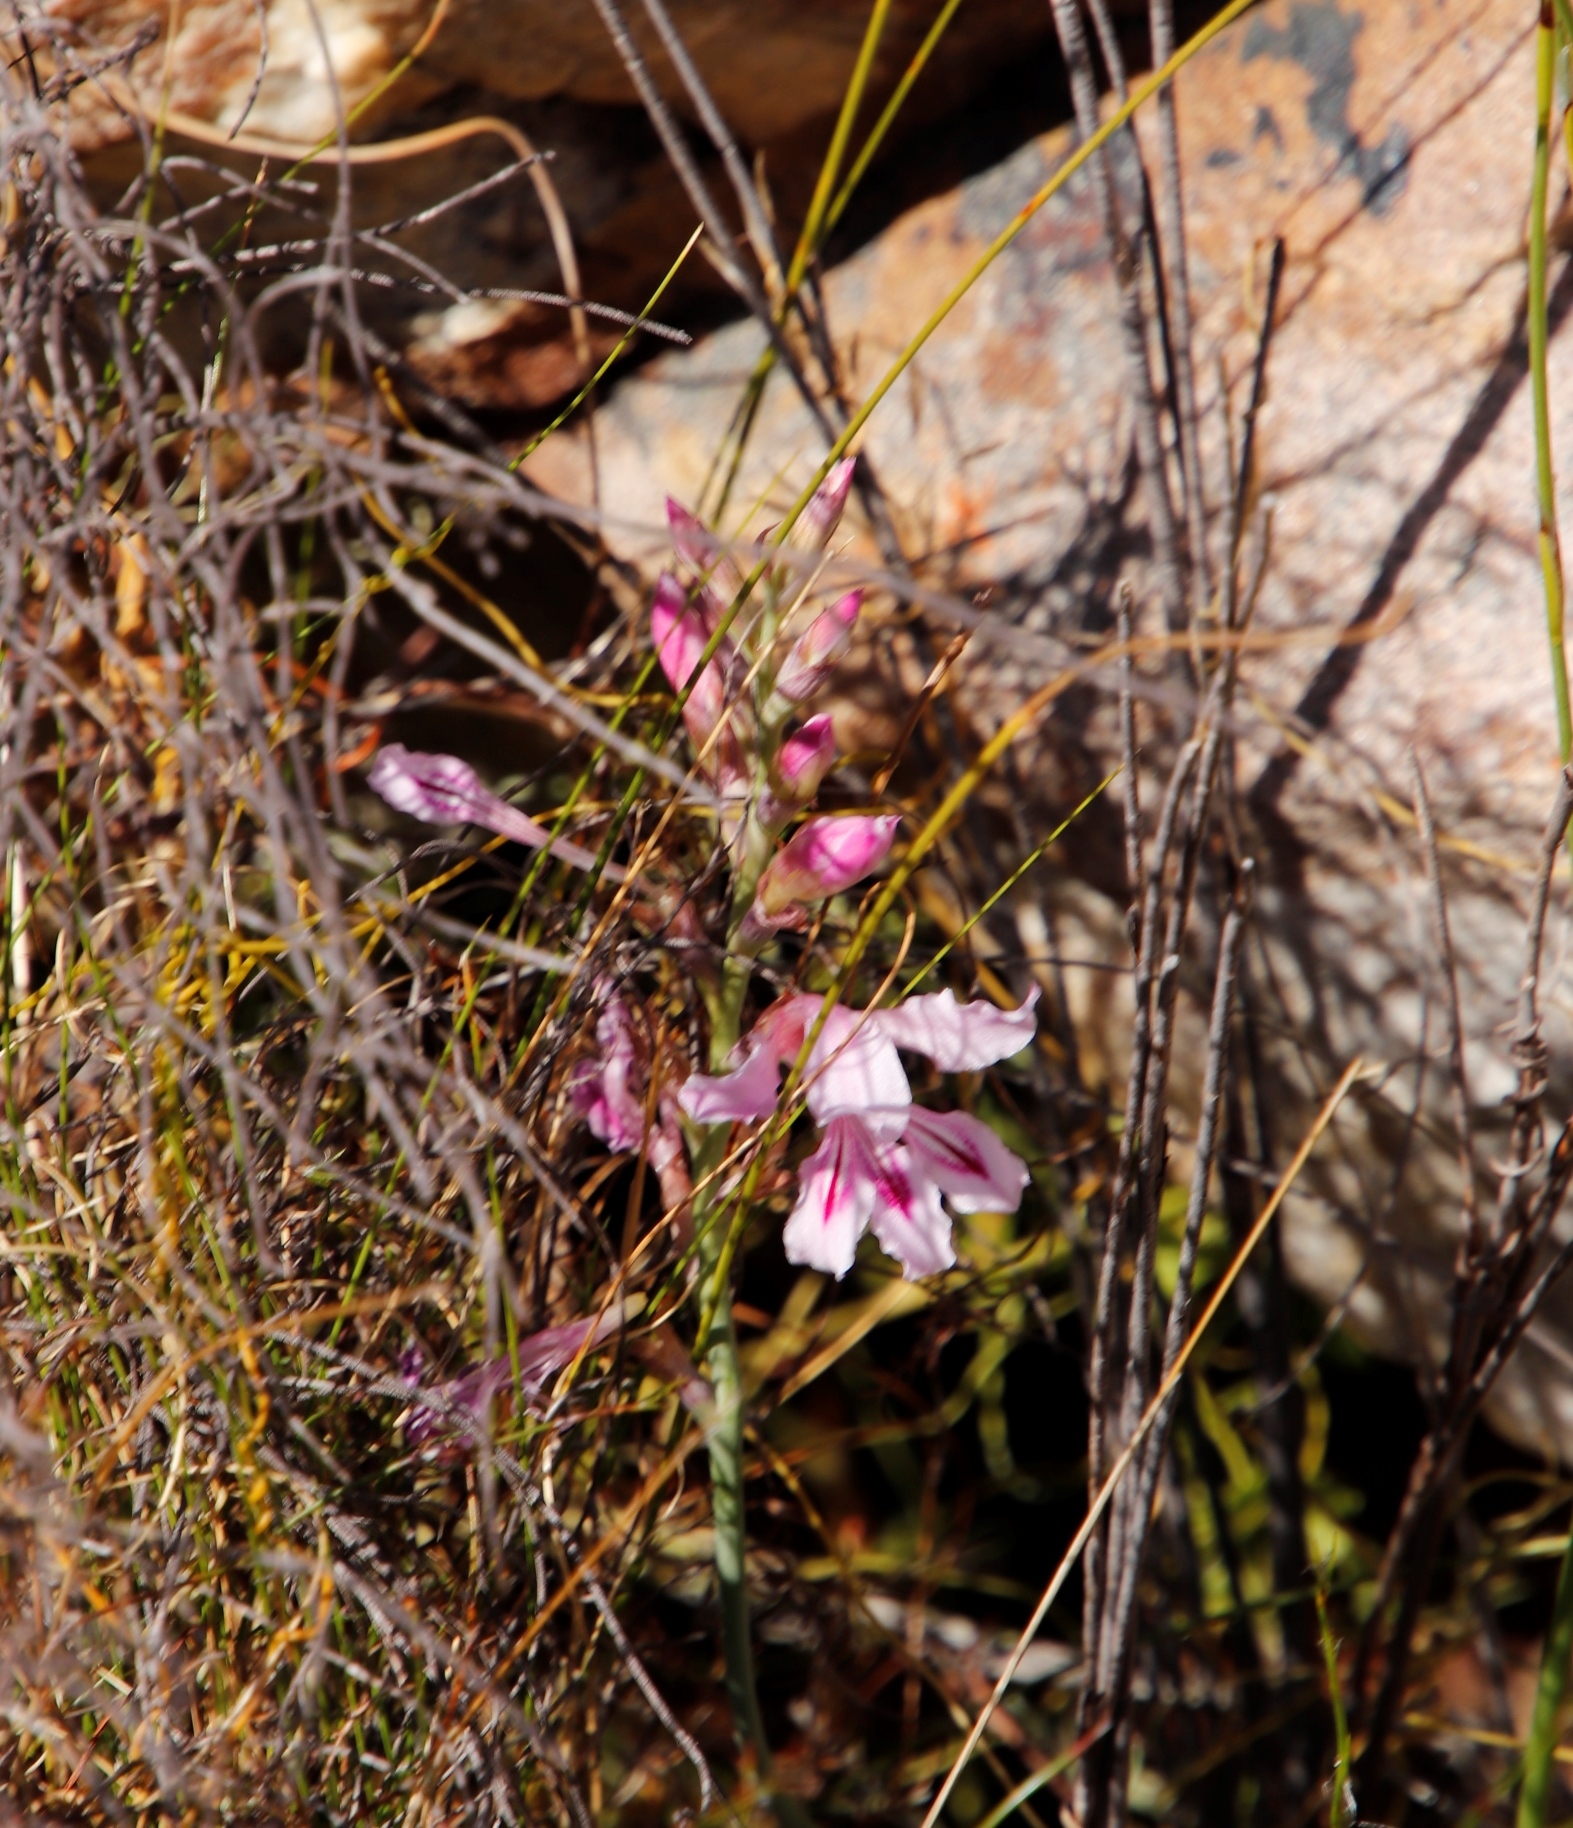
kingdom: Plantae
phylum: Tracheophyta
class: Liliopsida
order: Asparagales
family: Iridaceae
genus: Tritoniopsis
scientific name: Tritoniopsis lata
